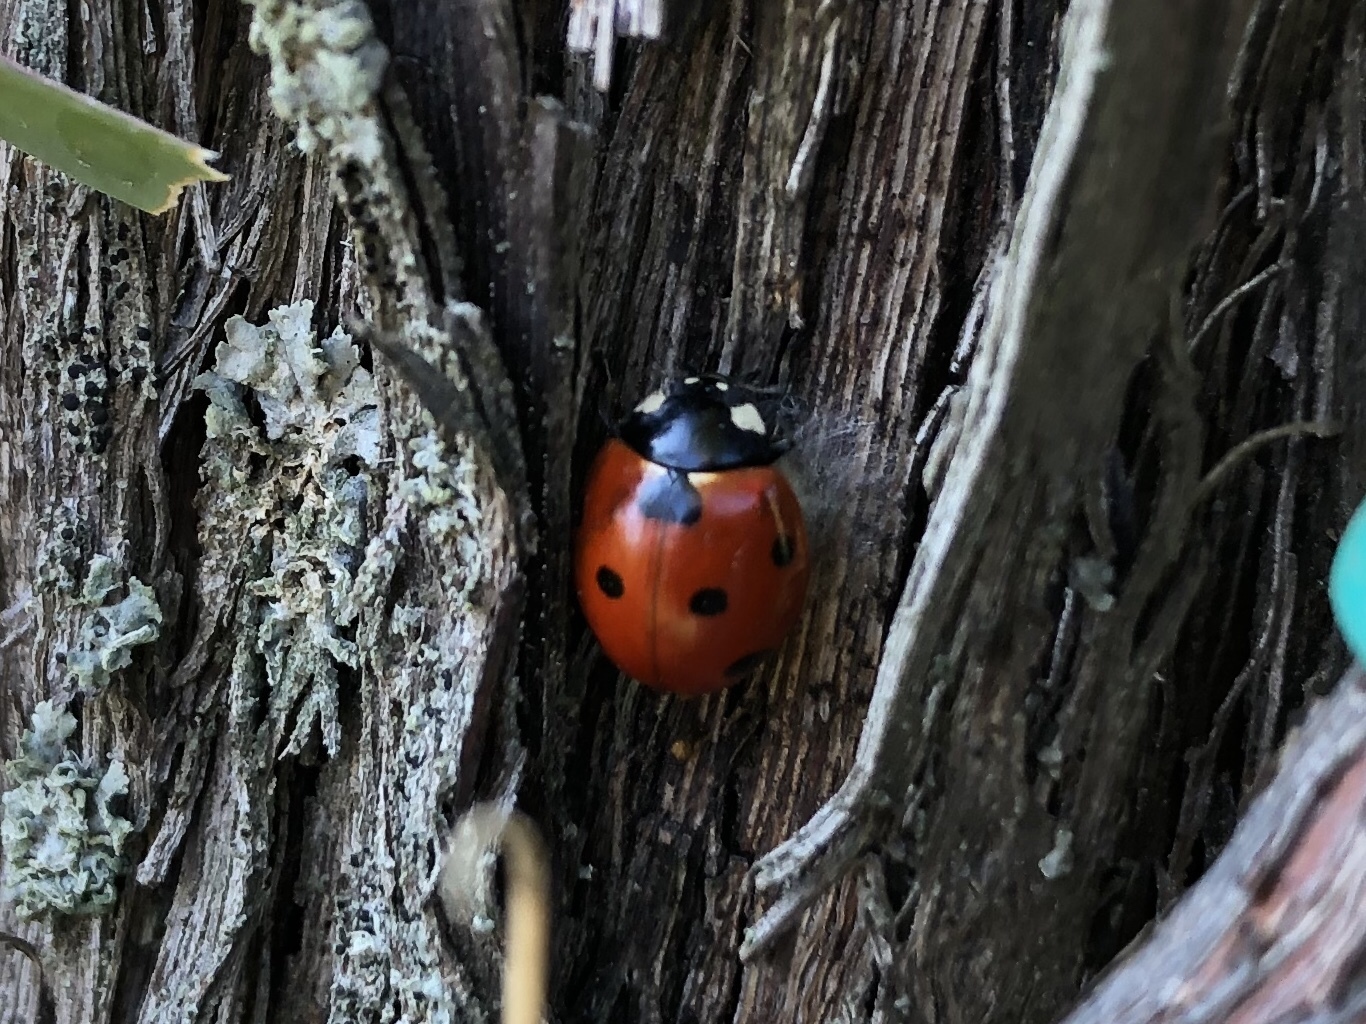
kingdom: Animalia
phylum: Arthropoda
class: Insecta
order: Coleoptera
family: Coccinellidae
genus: Coccinella
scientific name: Coccinella septempunctata
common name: Sevenspotted lady beetle
